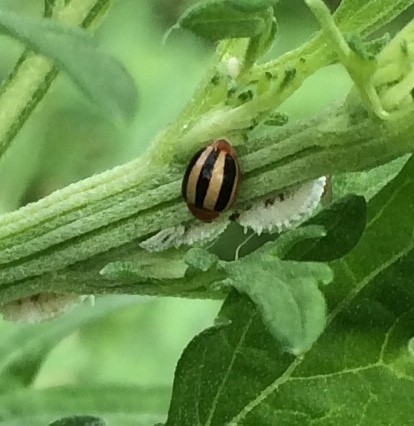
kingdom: Animalia
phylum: Arthropoda
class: Insecta
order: Coleoptera
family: Coccinellidae
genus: Brumoides
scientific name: Brumoides suturalis
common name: Threestriped lady beetle
